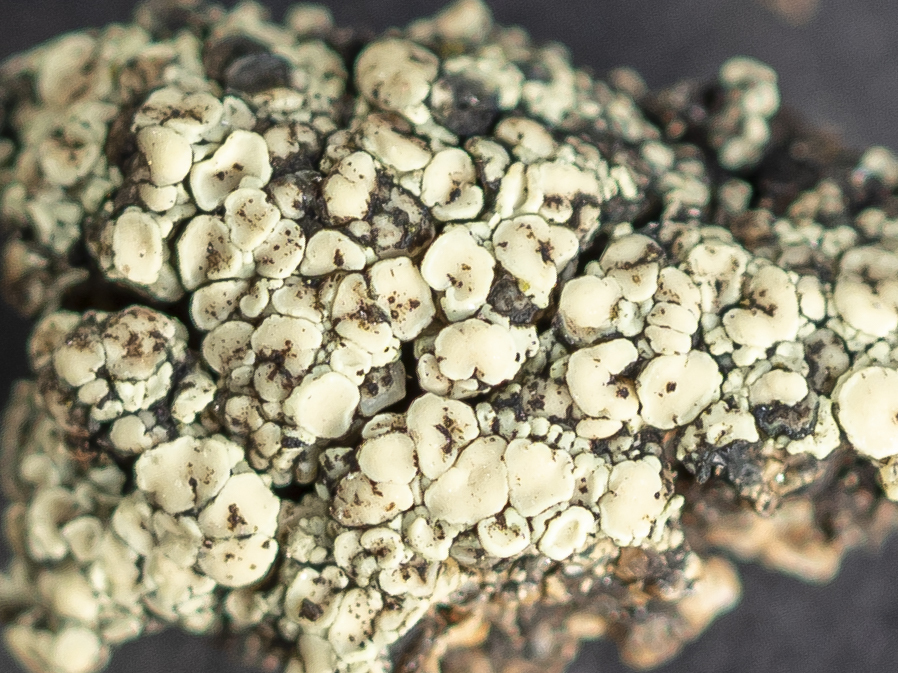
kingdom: Fungi
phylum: Ascomycota
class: Lecanoromycetes
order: Lecanorales
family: Lecanoraceae
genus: Lecanora
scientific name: Lecanora polytropa
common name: Granite-speck rim lichen
